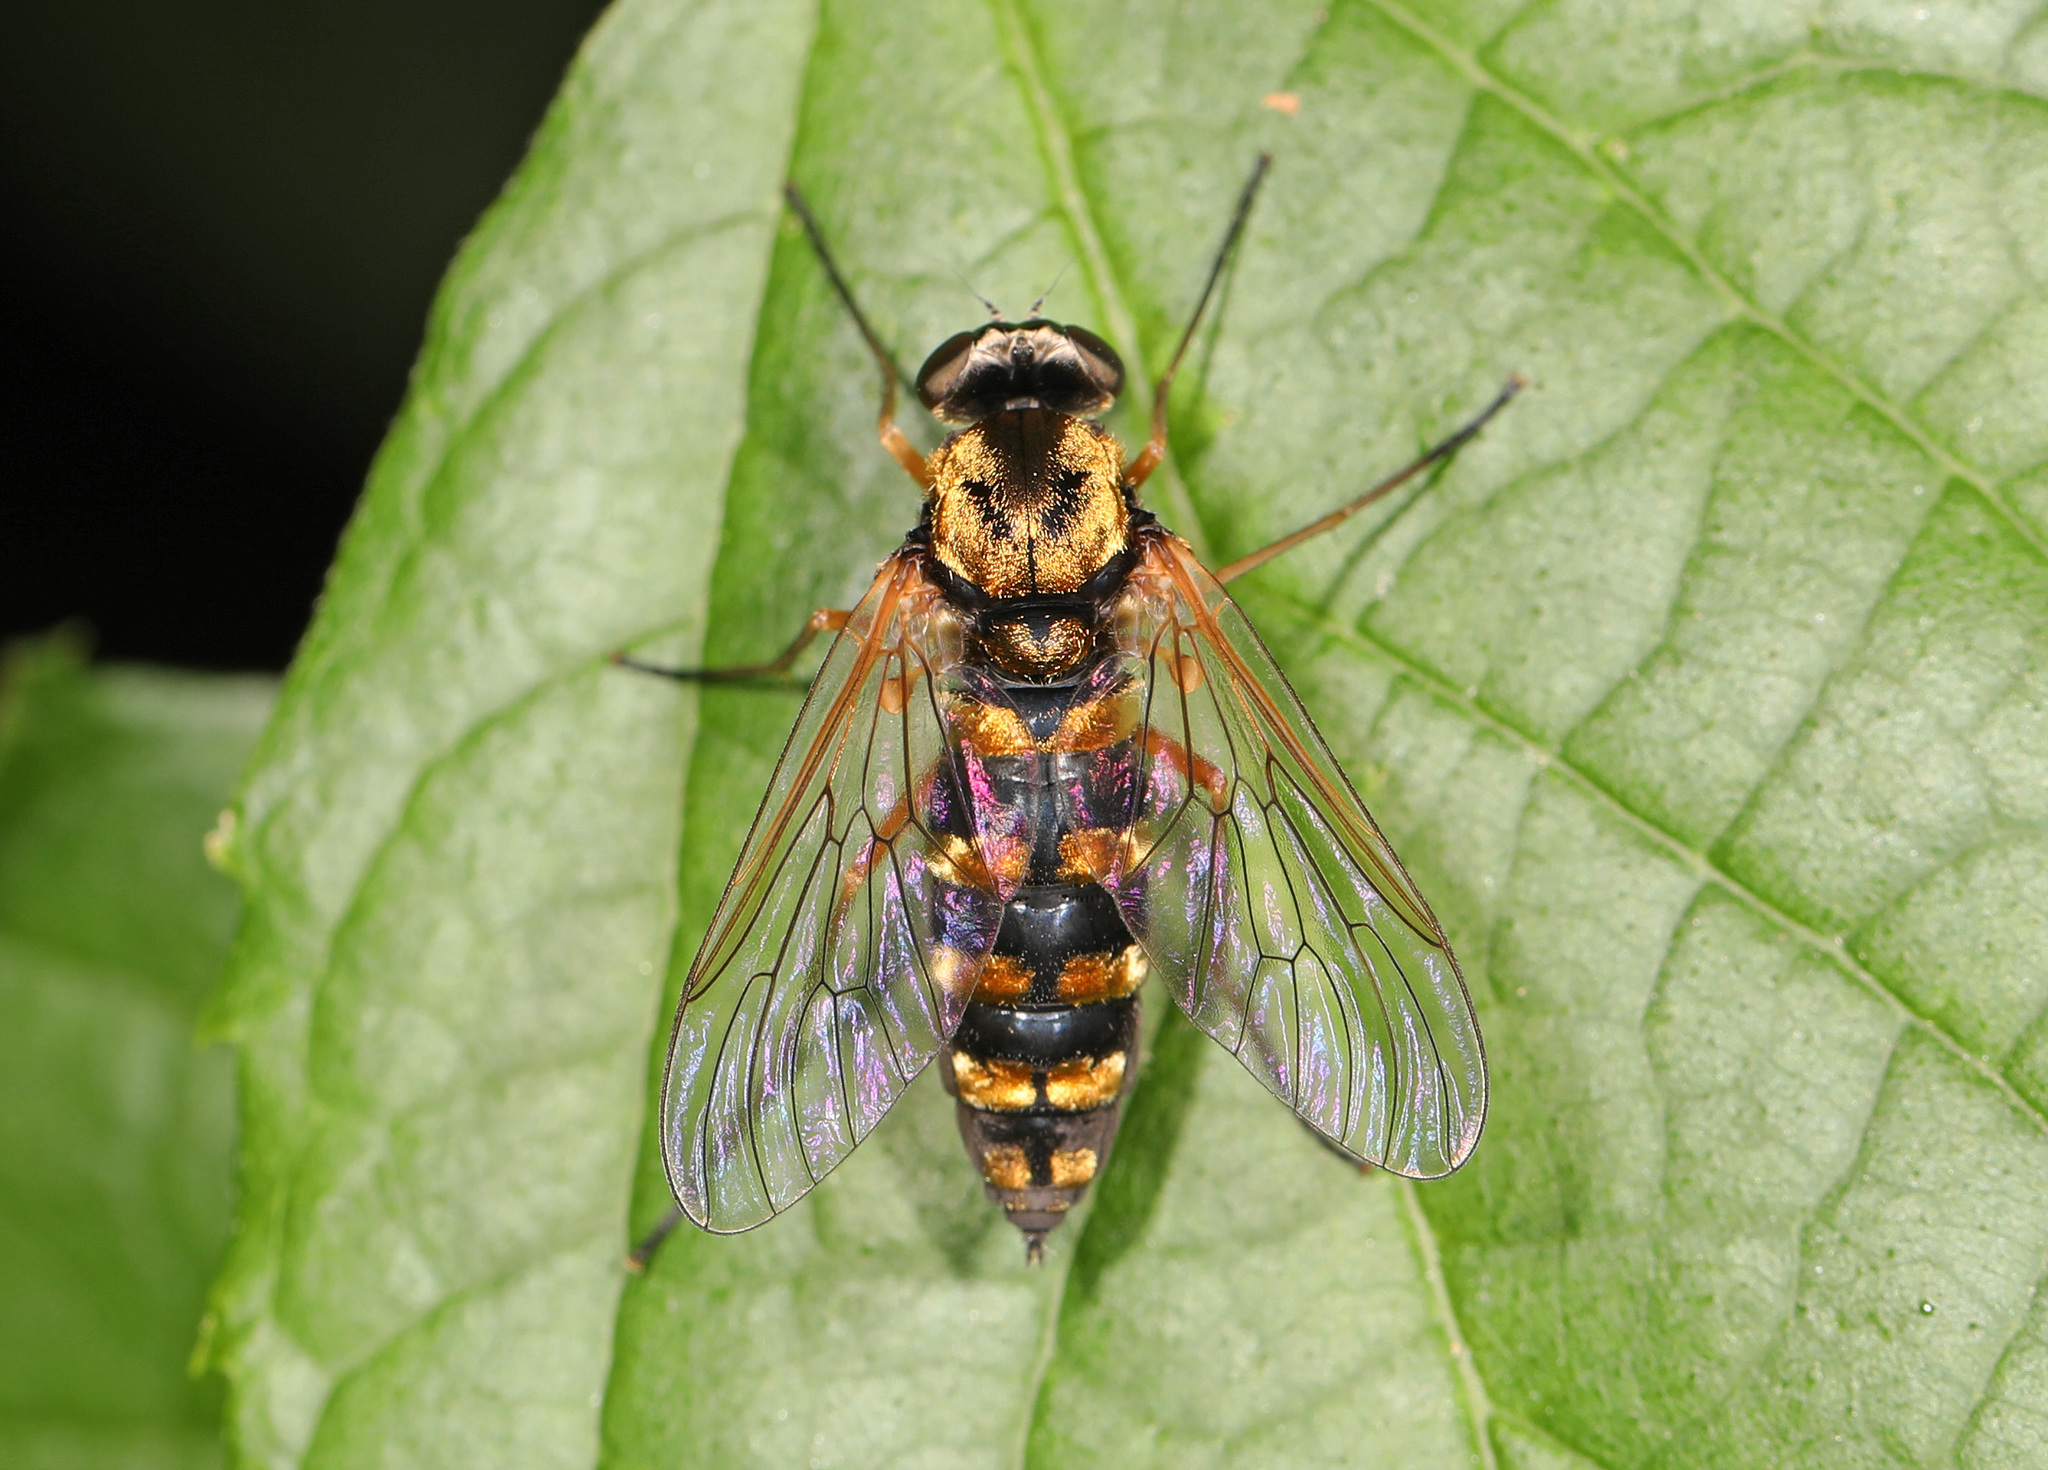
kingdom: Animalia
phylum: Arthropoda
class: Insecta
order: Diptera
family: Rhagionidae
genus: Chrysopilus
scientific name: Chrysopilus ornatus
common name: Ornate snipe fly
